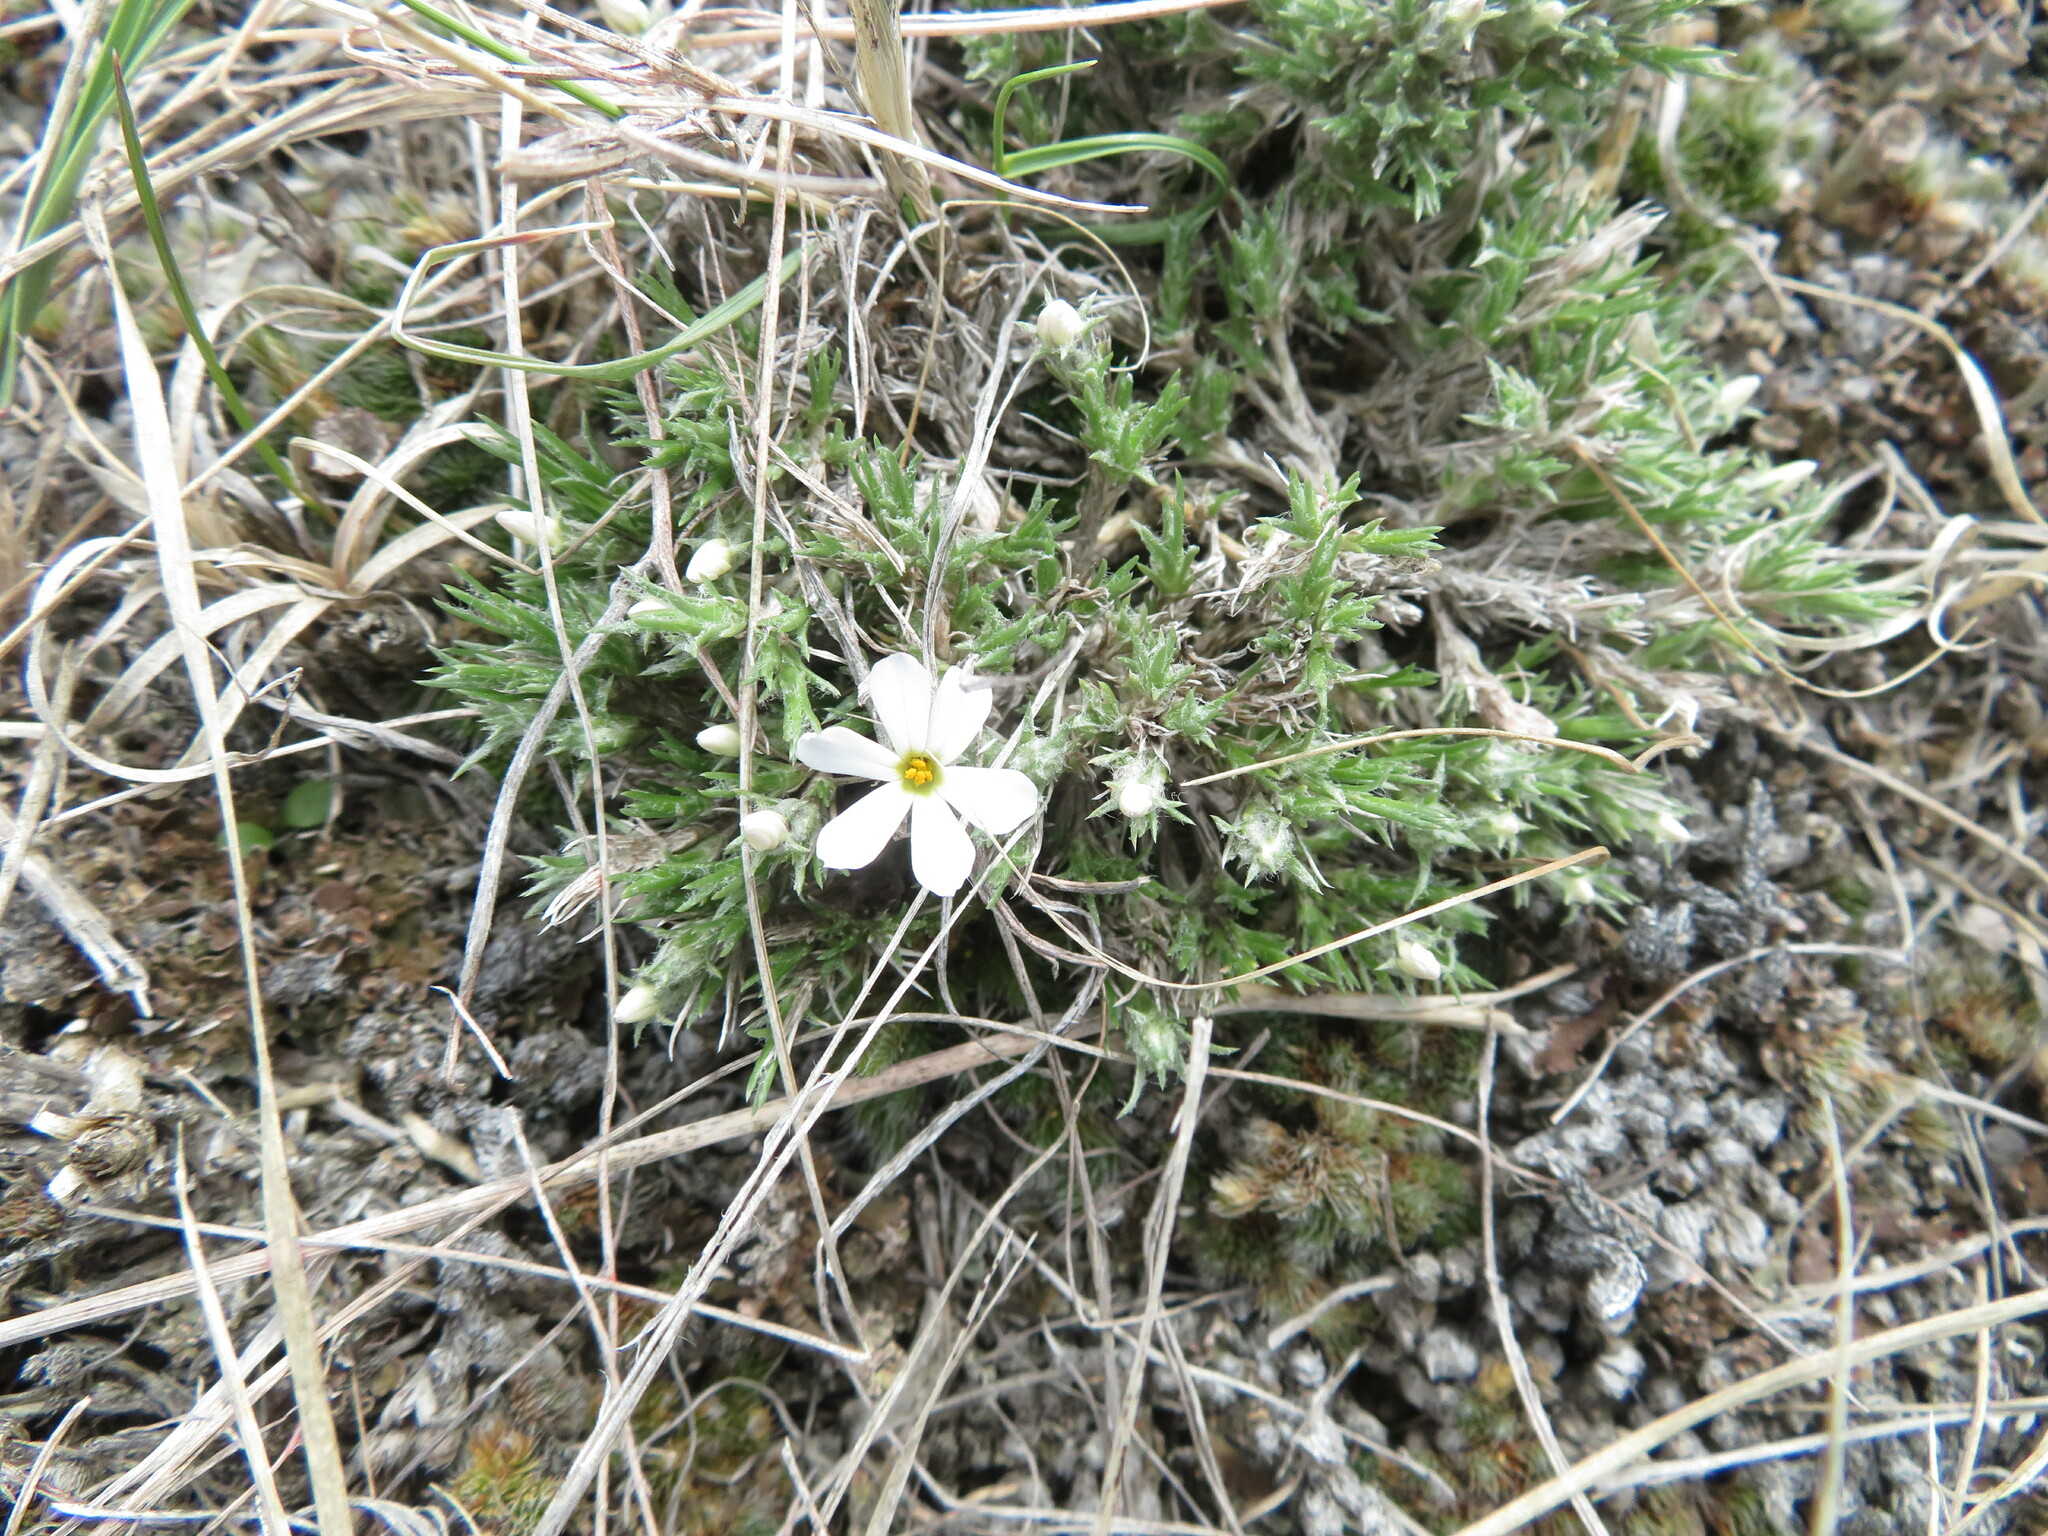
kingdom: Plantae
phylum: Tracheophyta
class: Magnoliopsida
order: Ericales
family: Polemoniaceae
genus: Phlox
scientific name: Phlox hoodii
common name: Moss phlox
